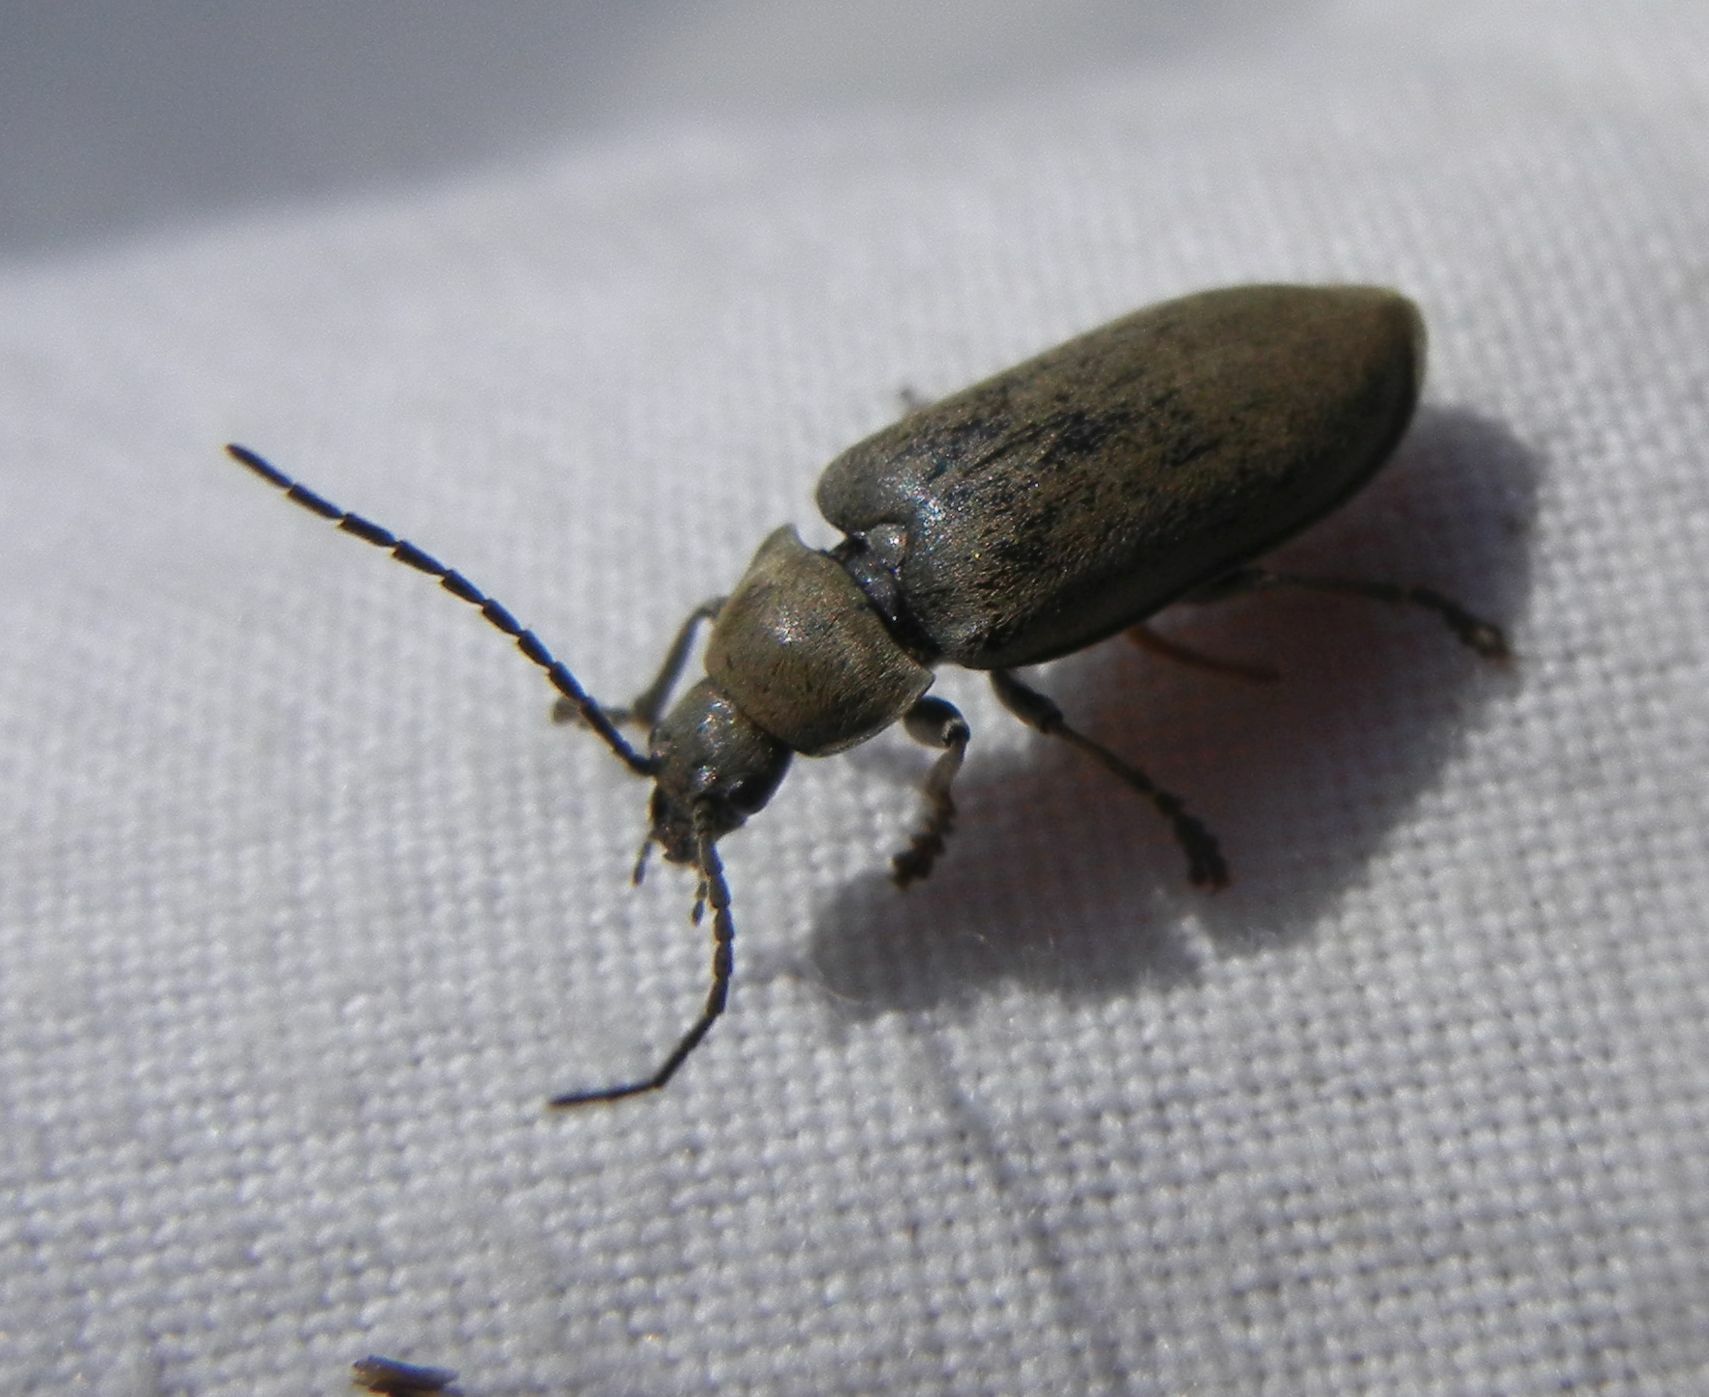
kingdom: Animalia
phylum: Arthropoda
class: Insecta
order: Coleoptera
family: Dascillidae
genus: Dascillus
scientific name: Dascillus cervinus
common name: Orchid beetle
